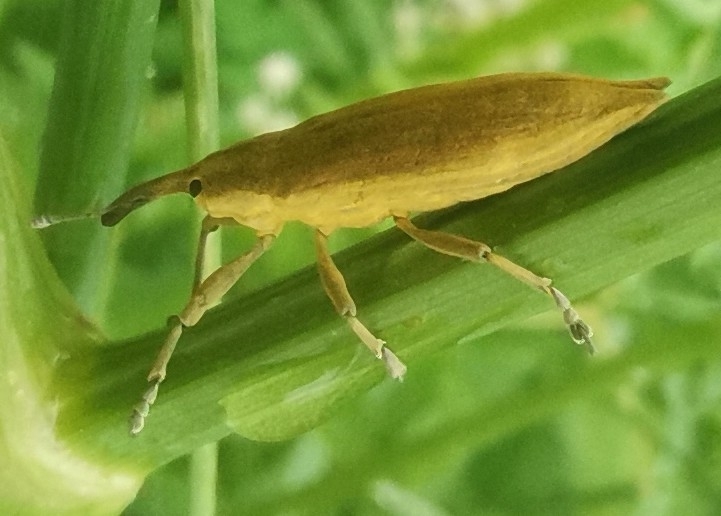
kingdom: Animalia
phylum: Arthropoda
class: Insecta
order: Coleoptera
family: Curculionidae
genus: Lixus
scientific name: Lixus iridis
